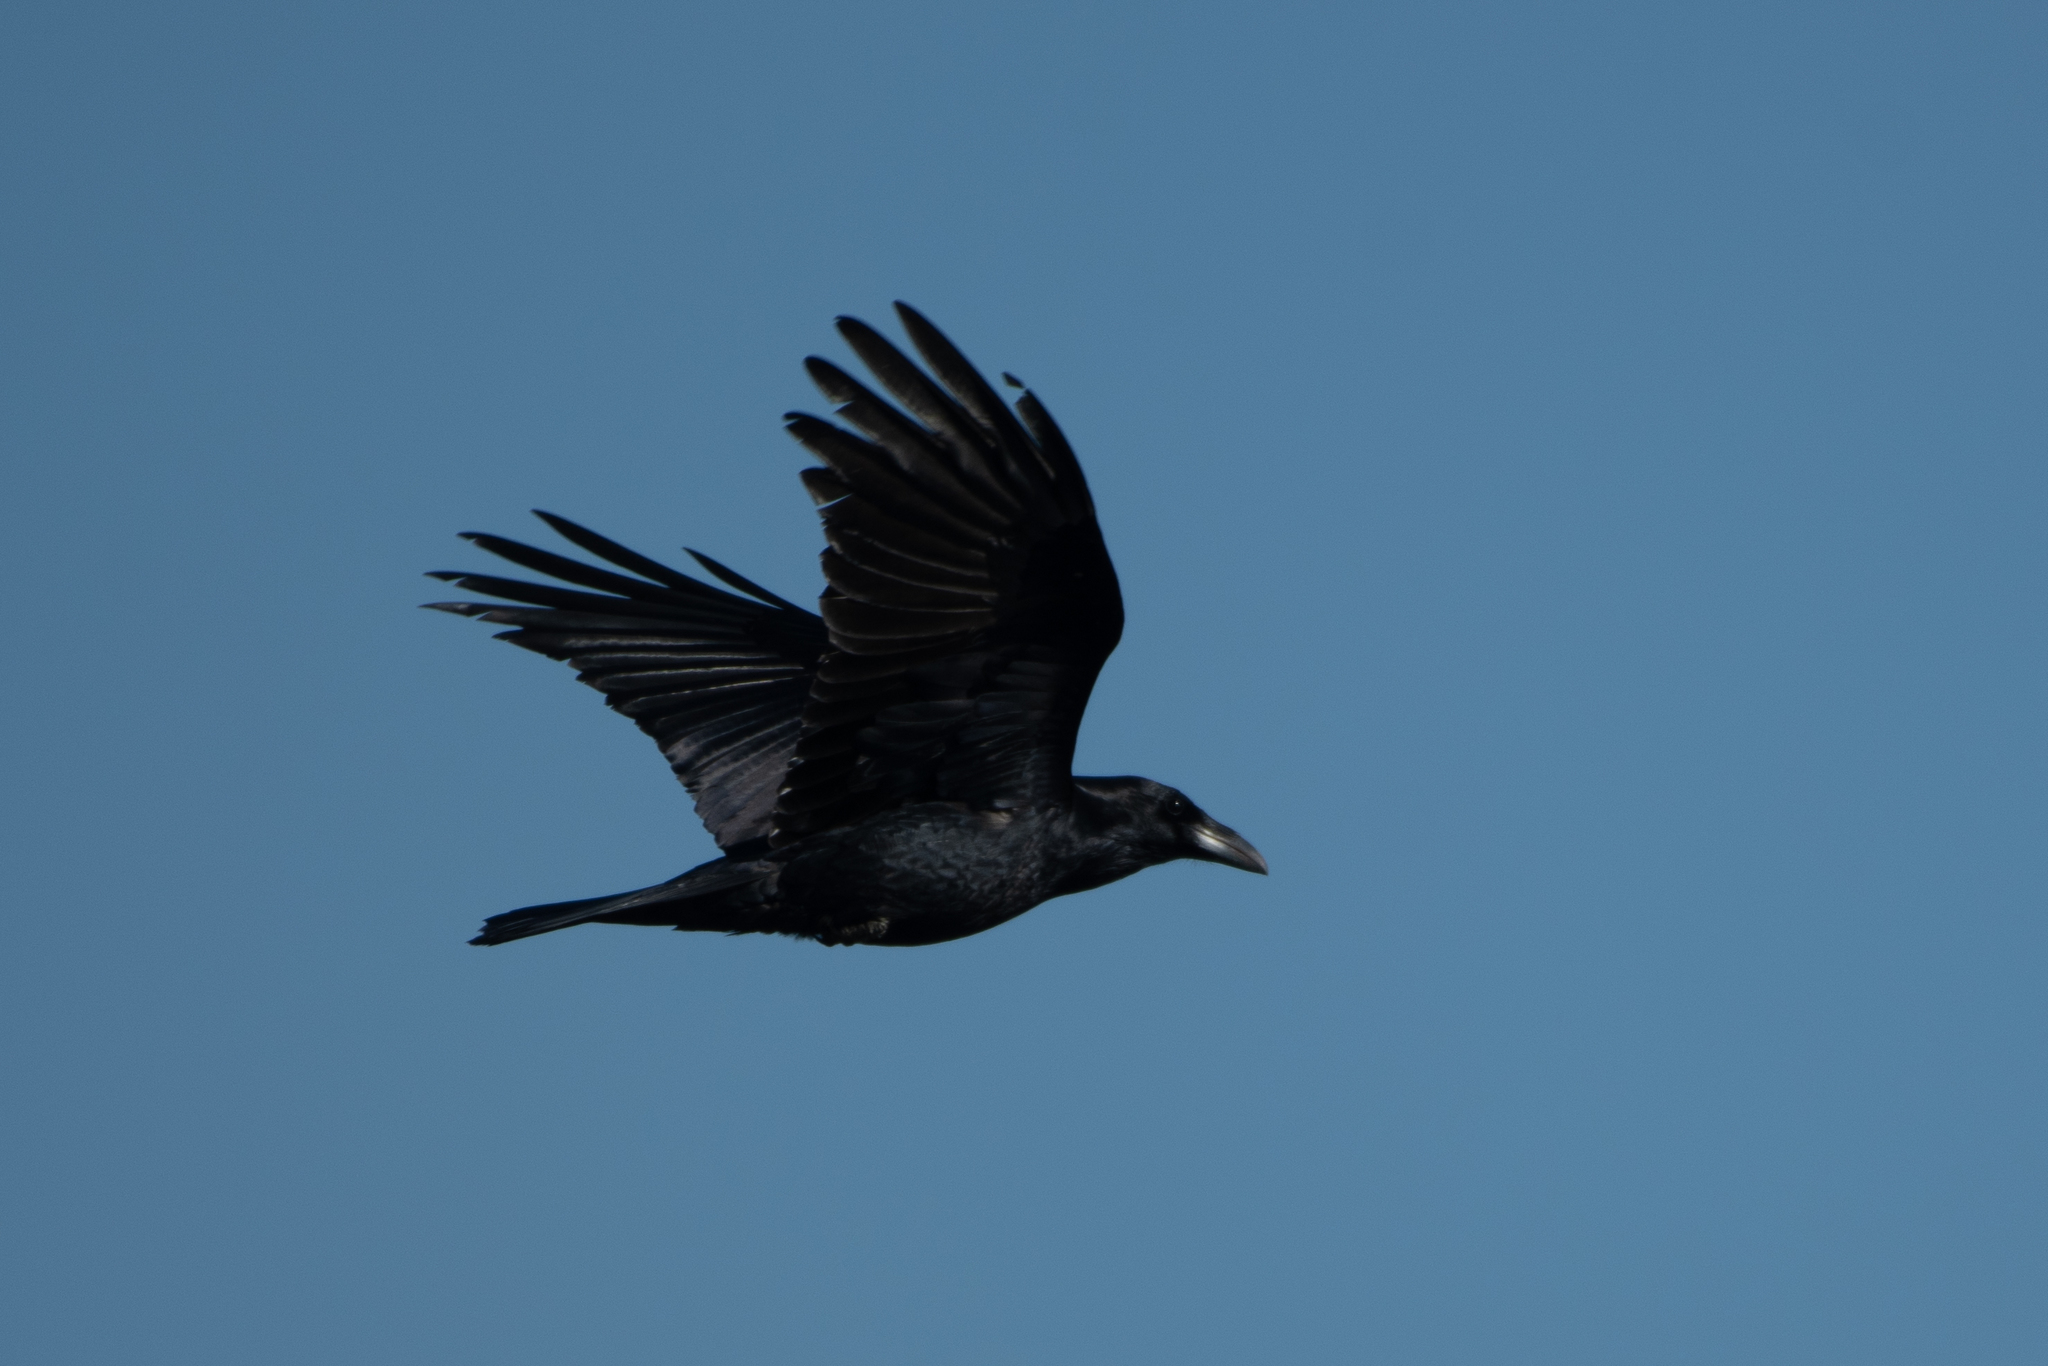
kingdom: Animalia
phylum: Chordata
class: Aves
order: Passeriformes
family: Corvidae
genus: Corvus
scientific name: Corvus corax
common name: Common raven
